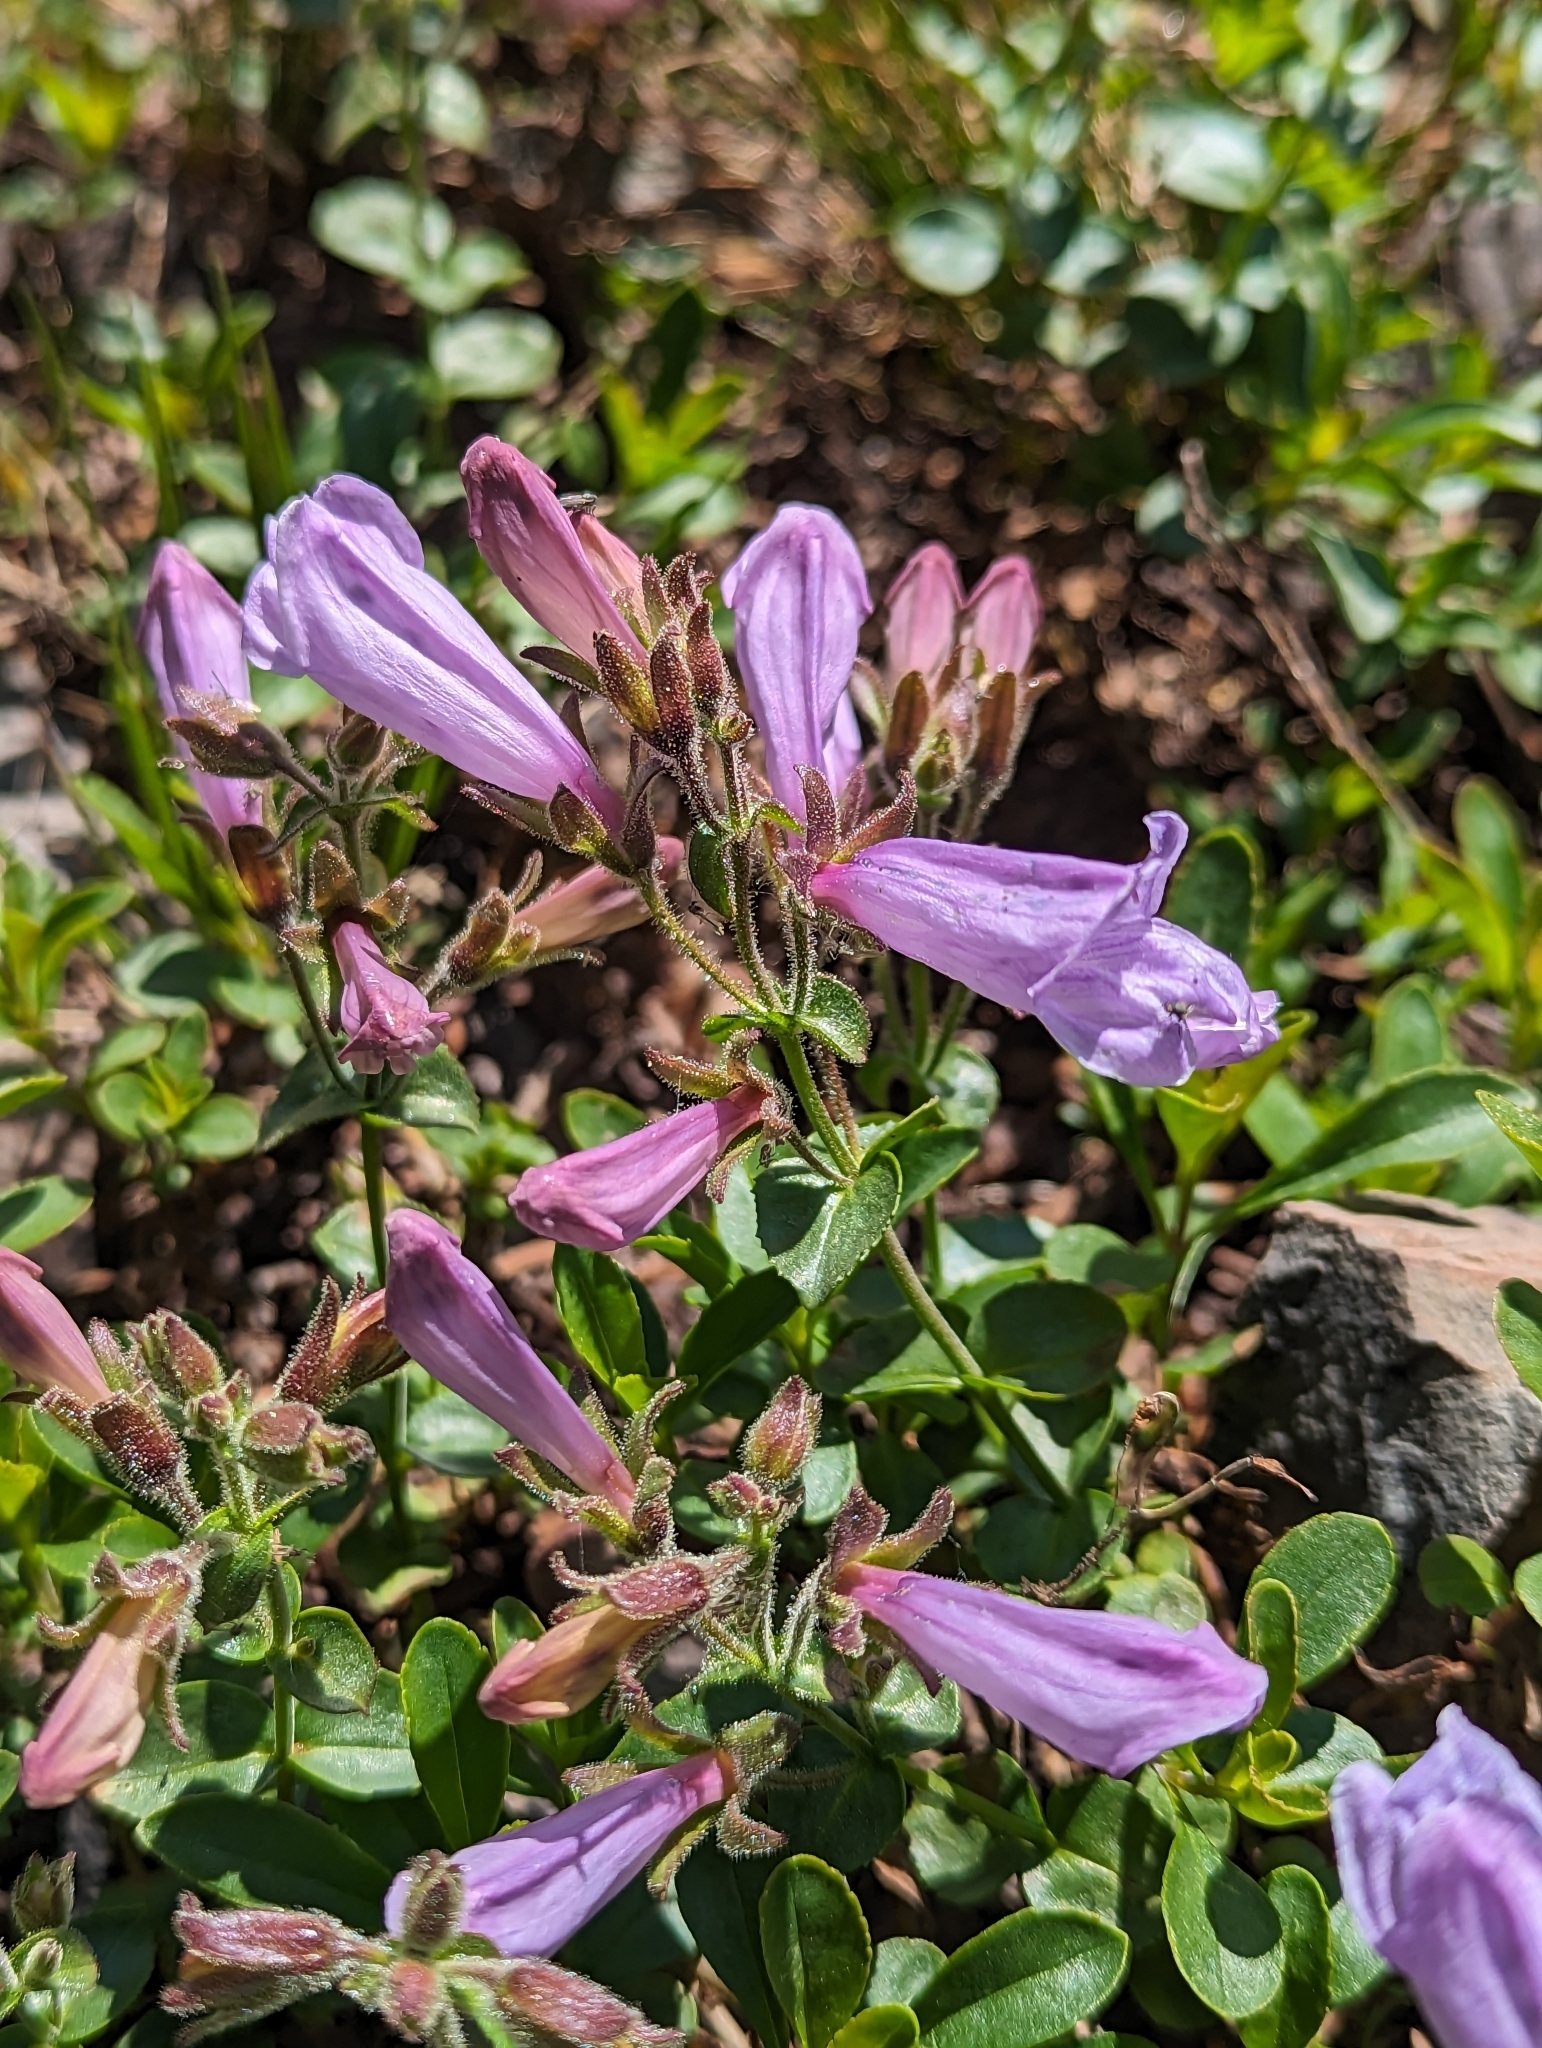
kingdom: Plantae
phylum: Tracheophyta
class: Magnoliopsida
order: Lamiales
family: Plantaginaceae
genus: Penstemon
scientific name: Penstemon ellipticus
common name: Alpine beardtongue
